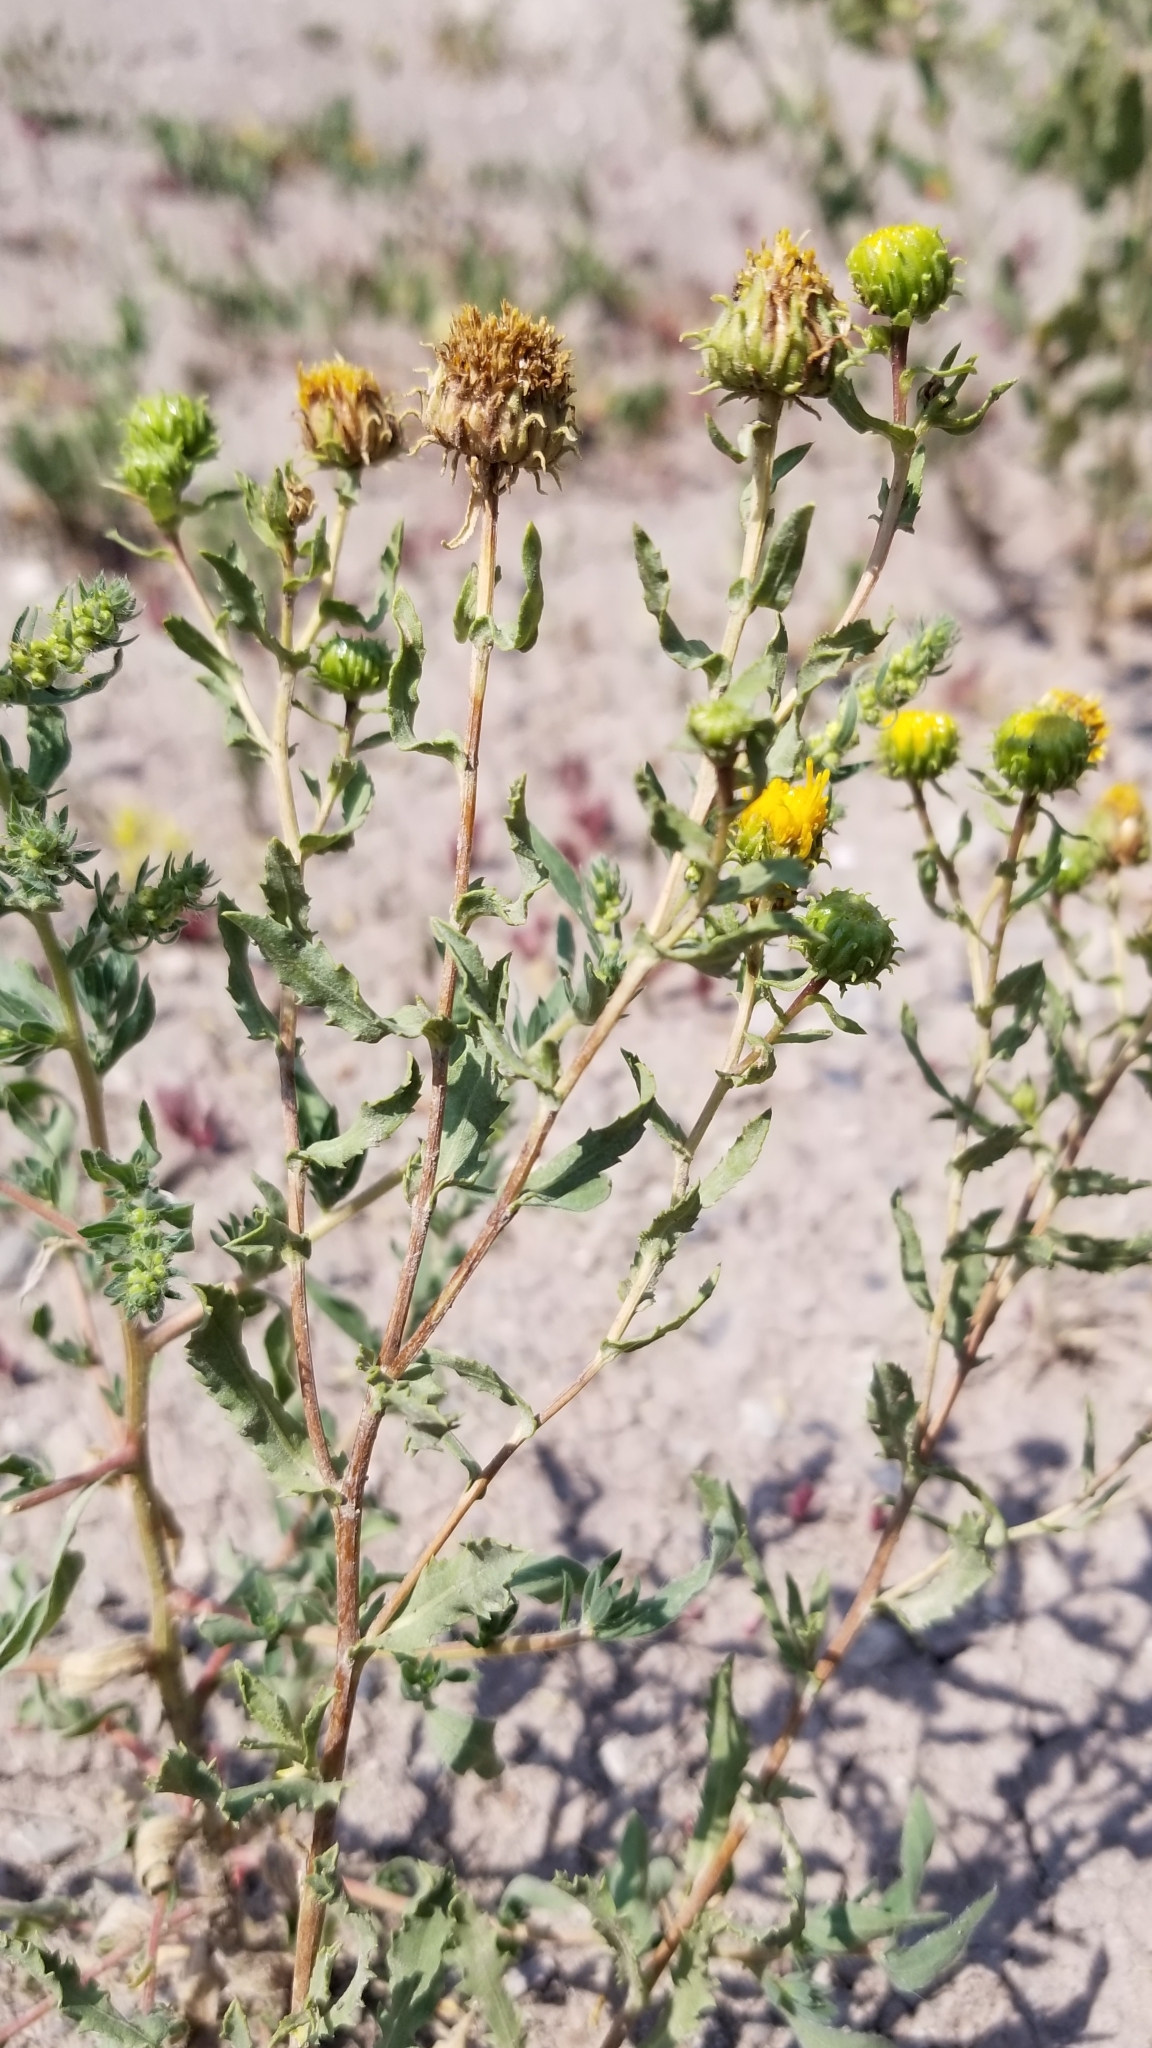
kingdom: Plantae
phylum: Tracheophyta
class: Magnoliopsida
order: Asterales
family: Asteraceae
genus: Grindelia
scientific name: Grindelia nuda
